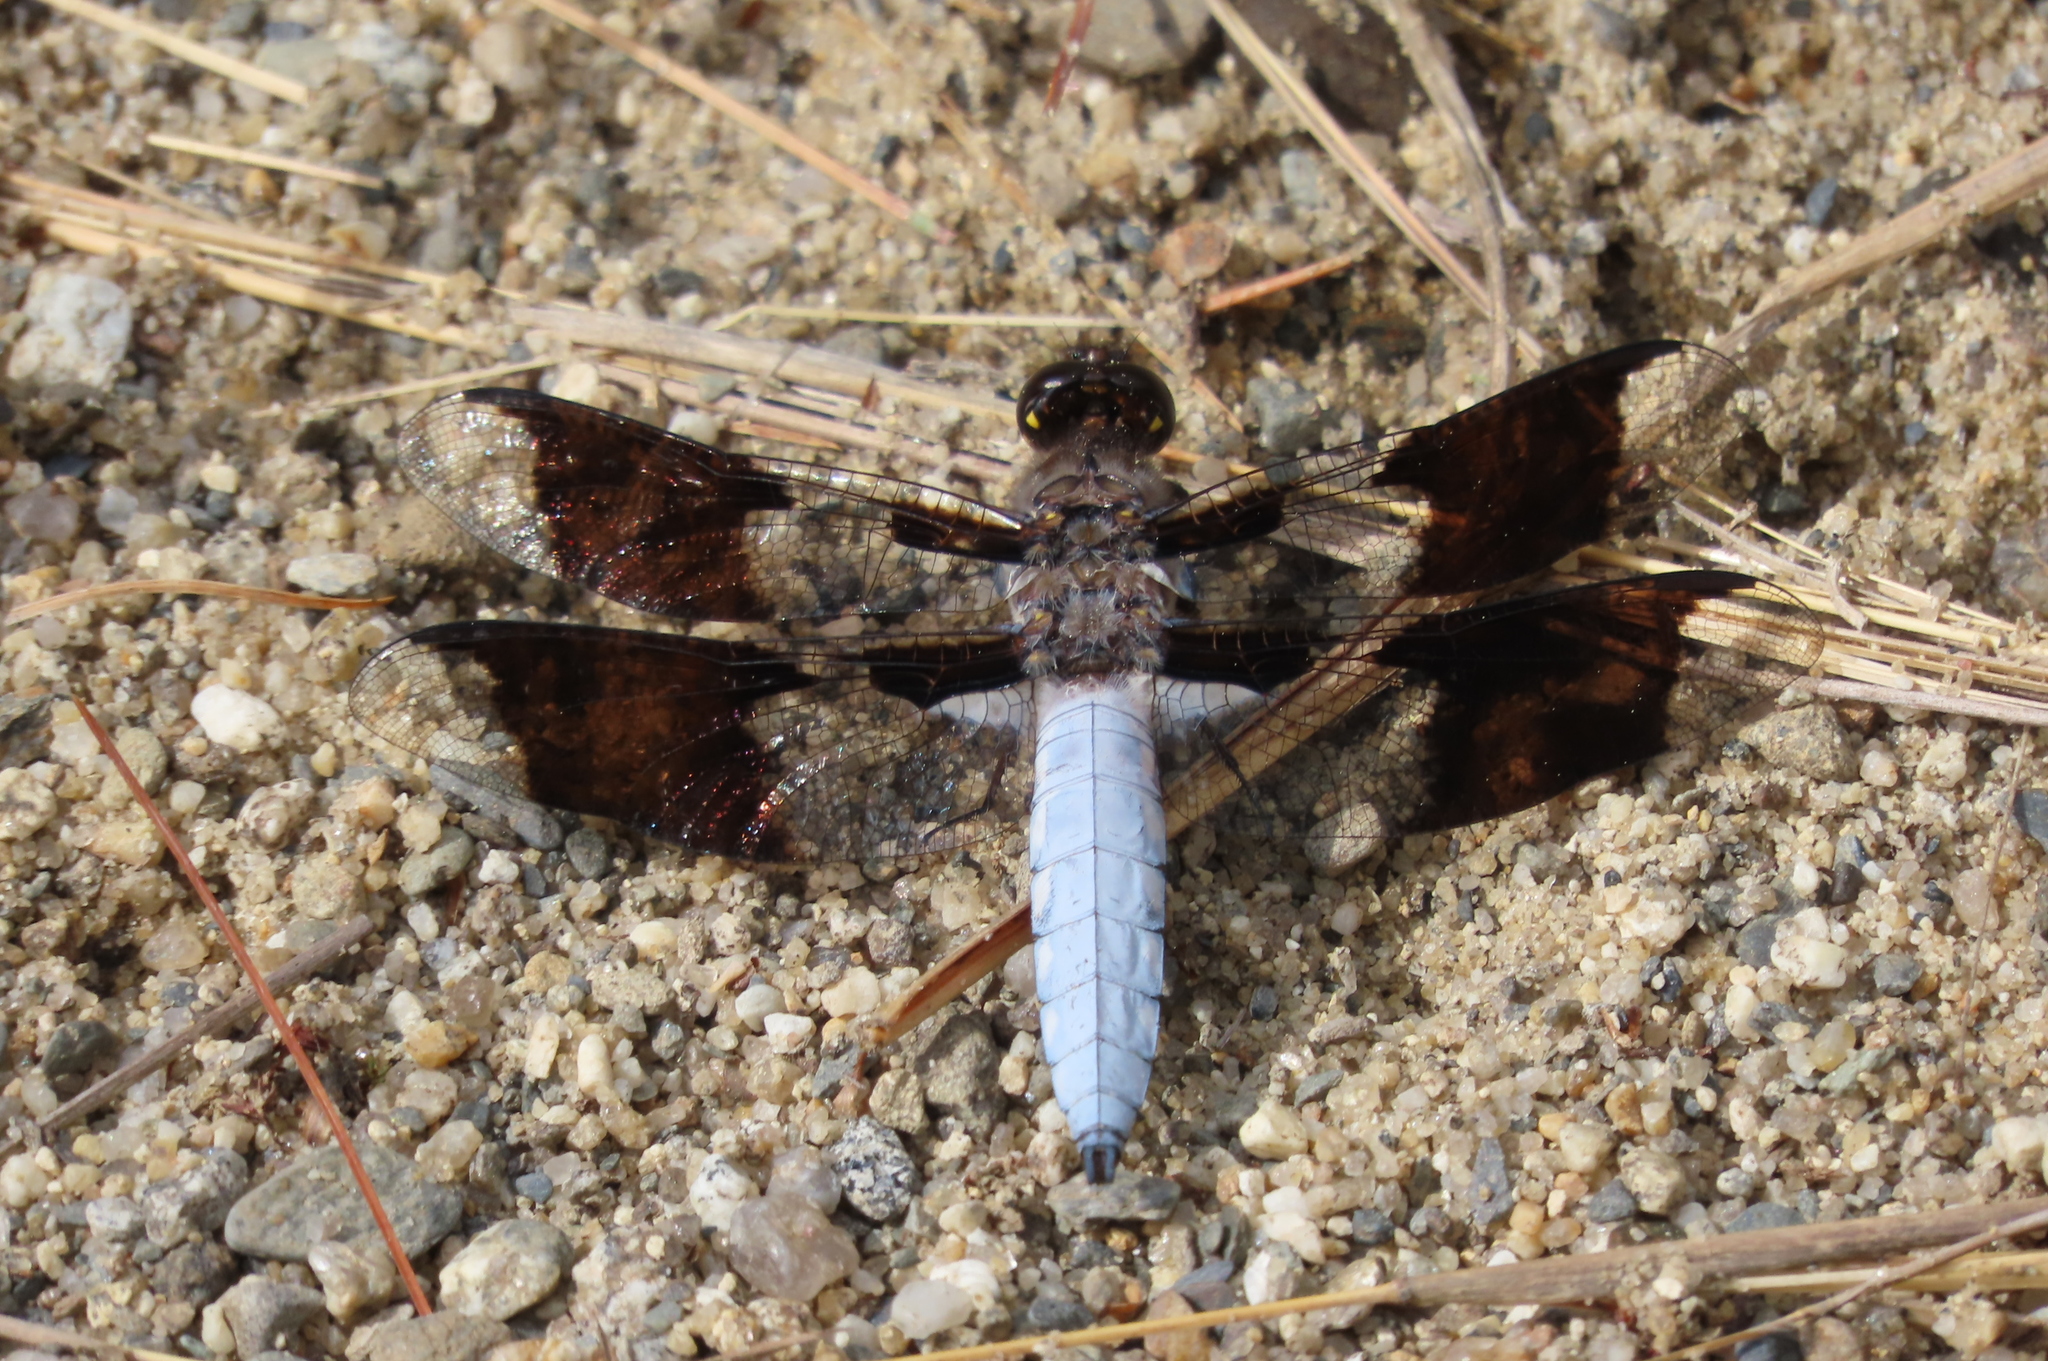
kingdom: Animalia
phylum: Arthropoda
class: Insecta
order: Odonata
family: Libellulidae
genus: Plathemis
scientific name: Plathemis lydia
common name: Common whitetail
